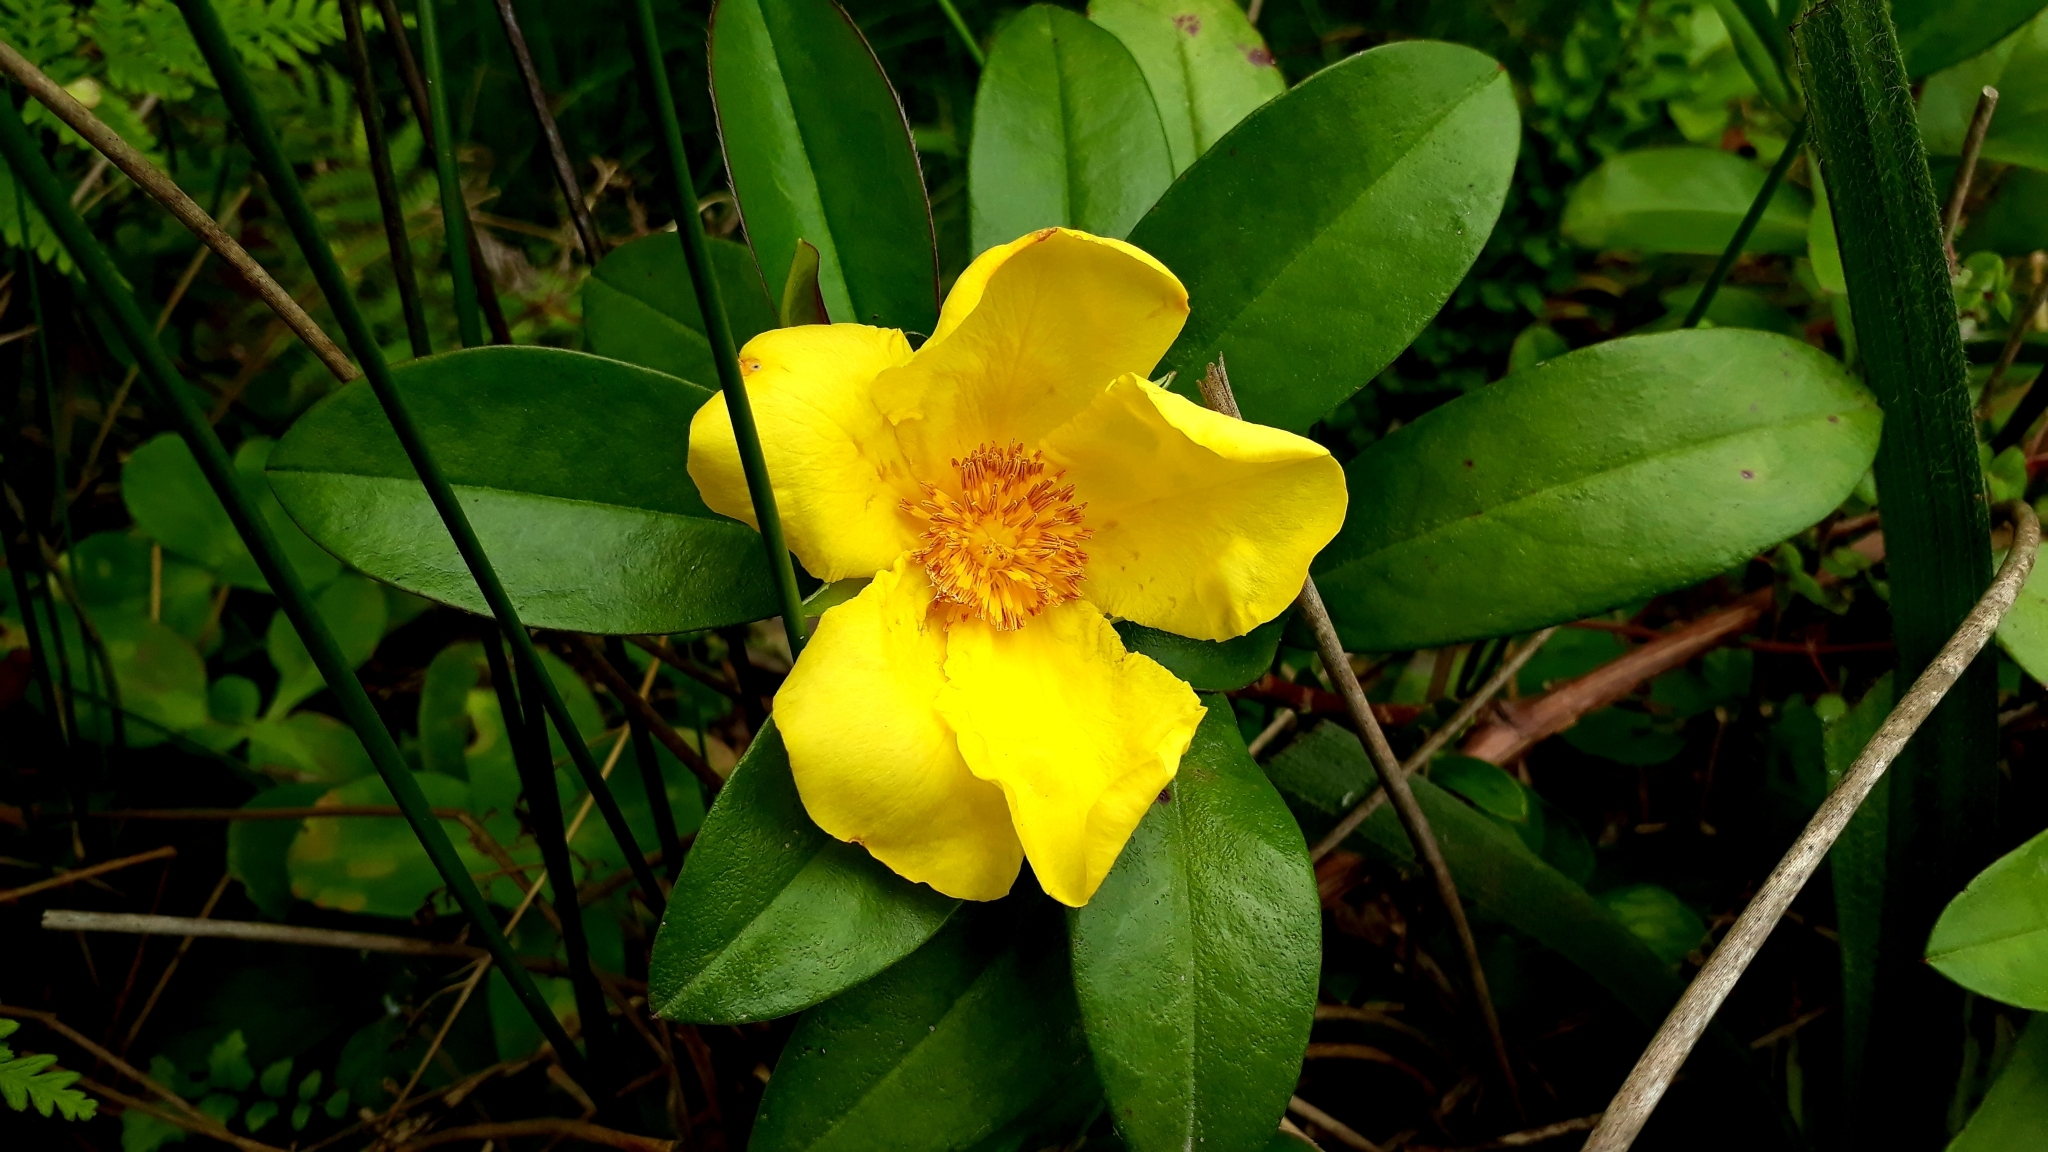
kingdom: Plantae
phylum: Tracheophyta
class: Magnoliopsida
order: Dilleniales
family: Dilleniaceae
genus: Hibbertia
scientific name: Hibbertia scandens
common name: Climbing guinea-flower
